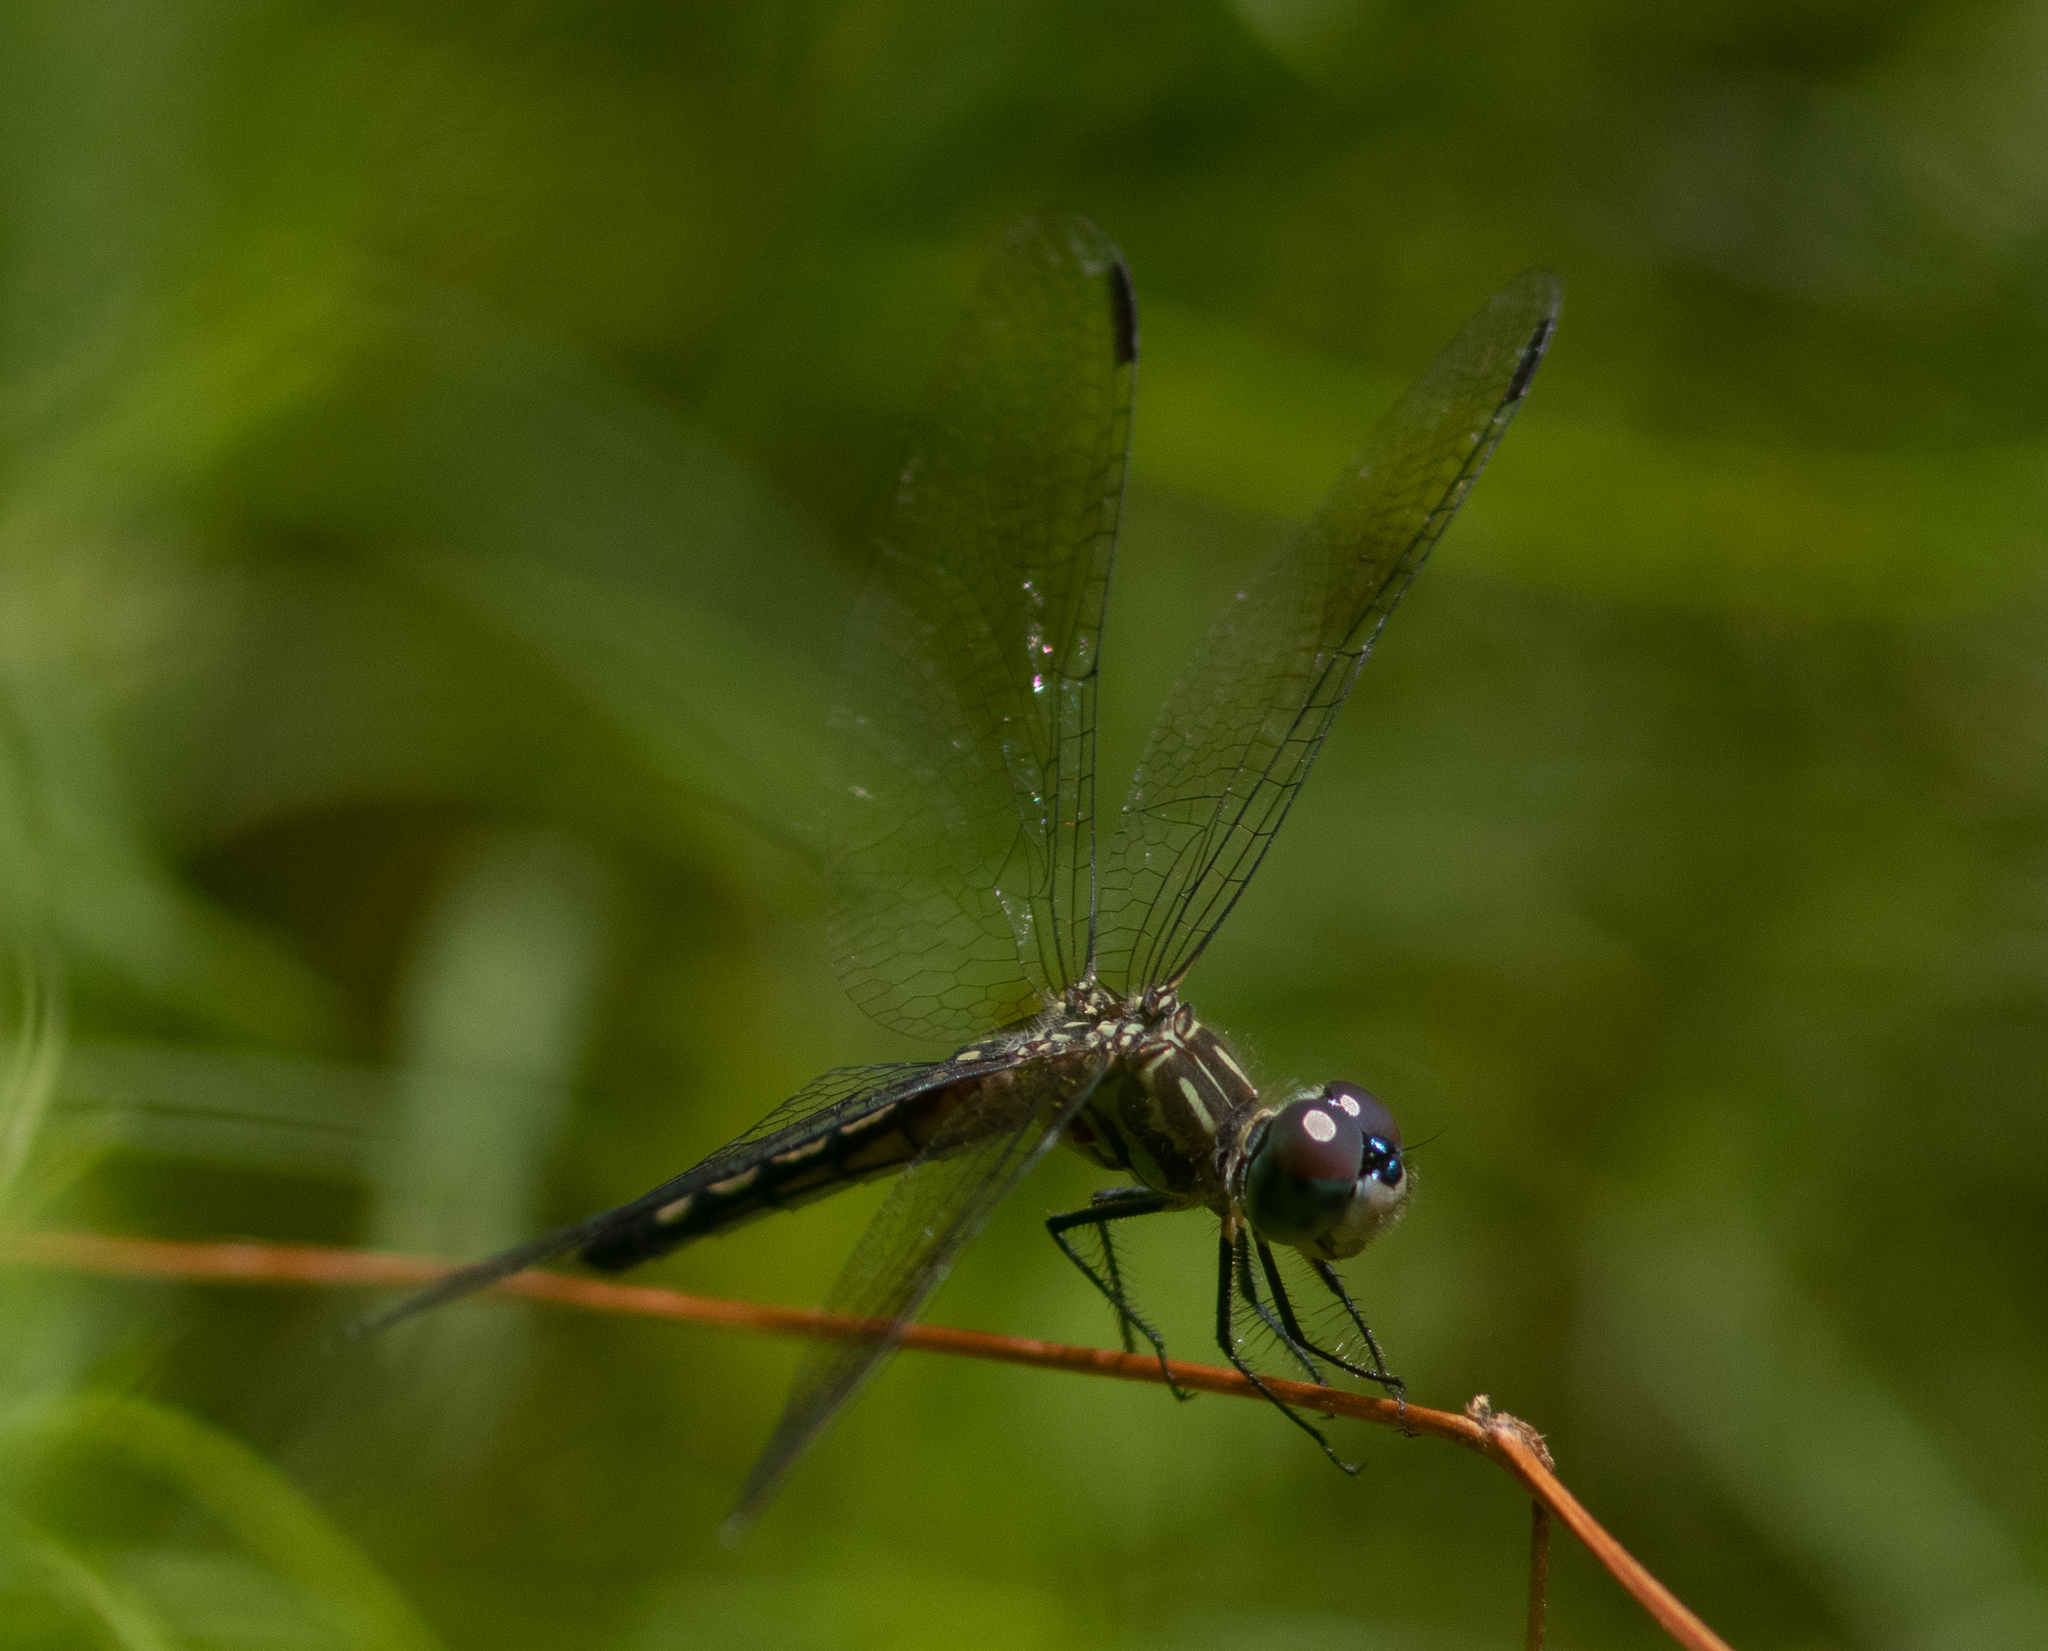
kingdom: Animalia
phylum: Arthropoda
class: Insecta
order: Odonata
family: Libellulidae
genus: Pachydiplax
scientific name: Pachydiplax longipennis
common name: Blue dasher
